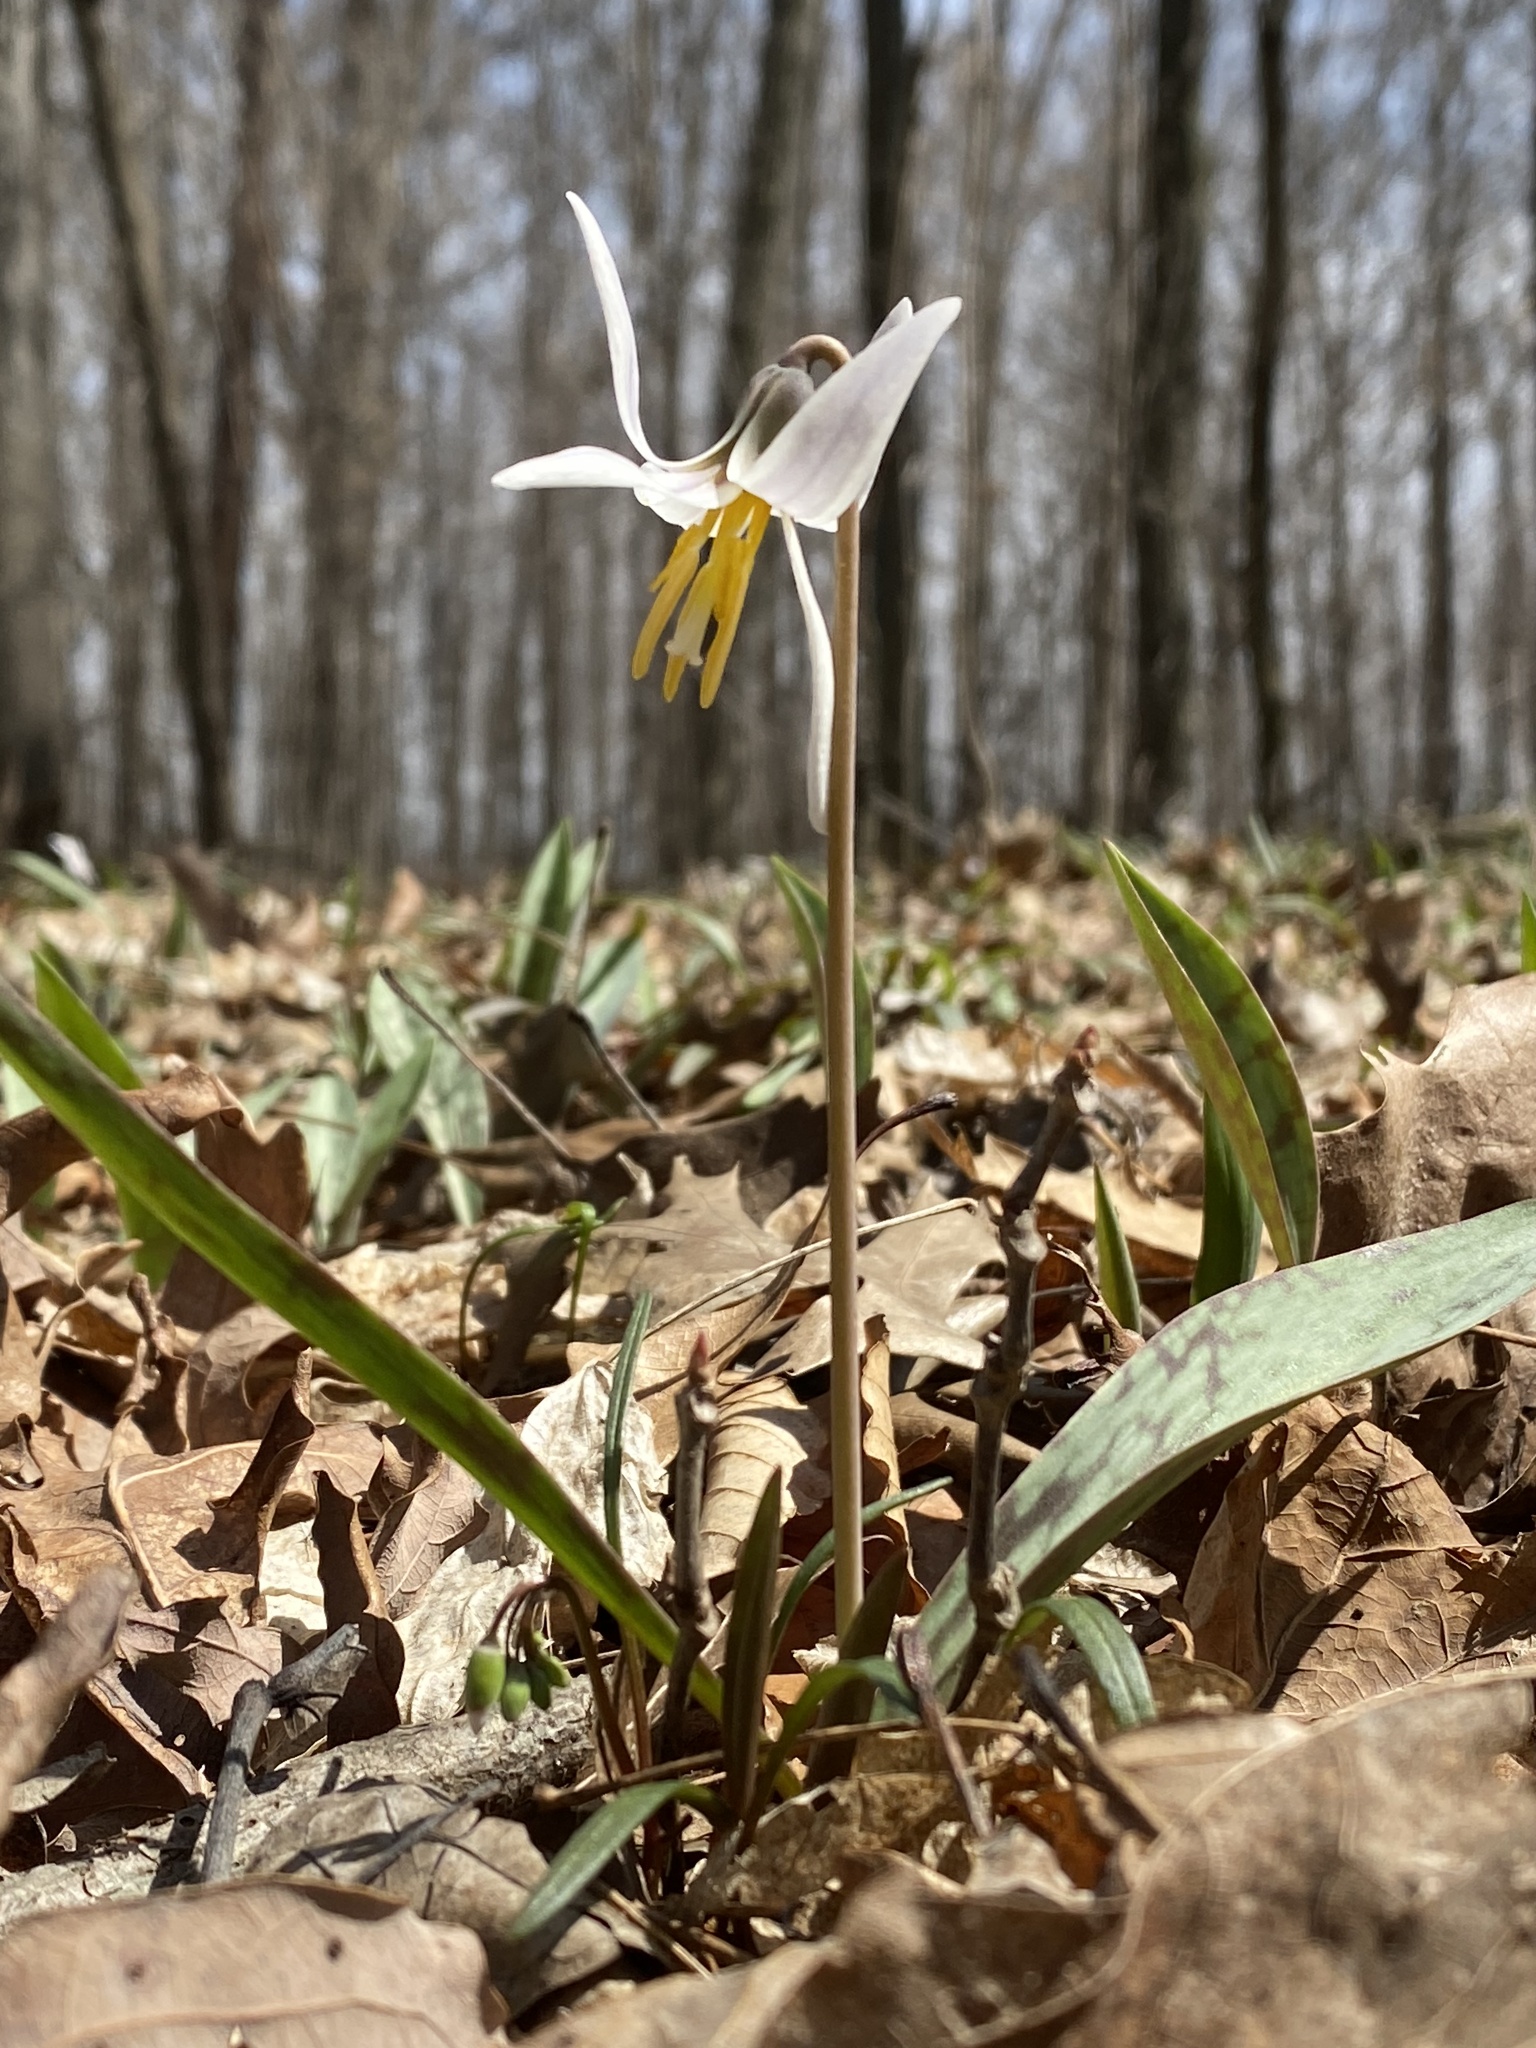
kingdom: Plantae
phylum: Tracheophyta
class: Liliopsida
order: Liliales
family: Liliaceae
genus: Erythronium
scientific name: Erythronium albidum
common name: White trout-lily
